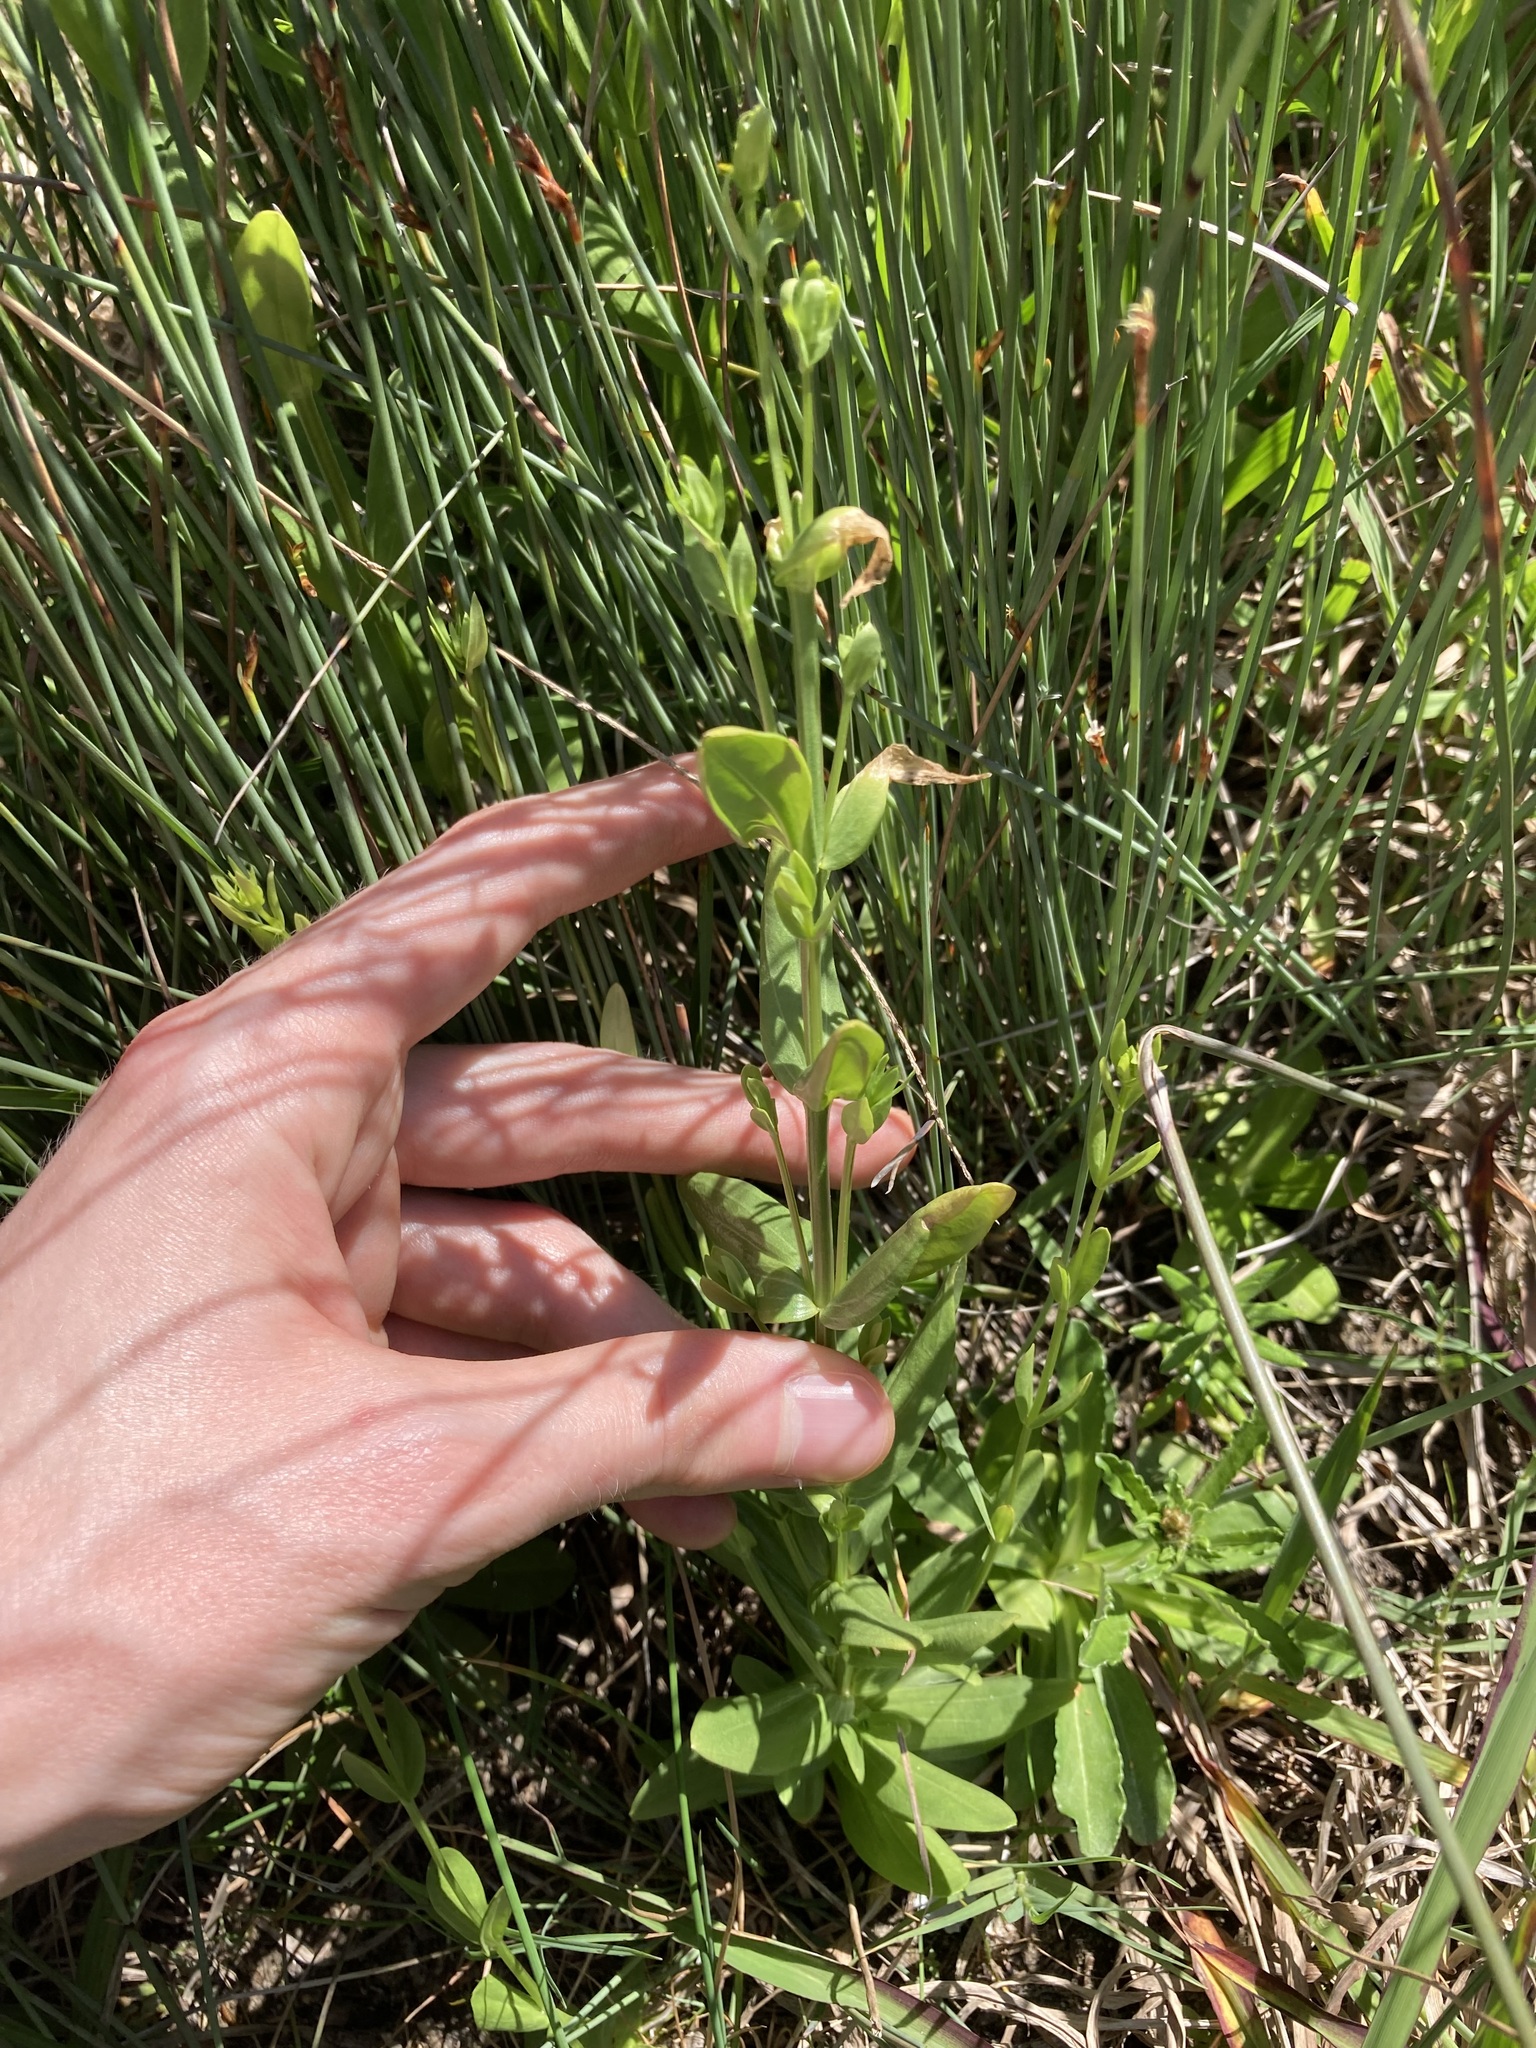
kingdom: Plantae
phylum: Tracheophyta
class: Magnoliopsida
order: Gentianales
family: Gentianaceae
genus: Centaurium
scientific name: Centaurium erythraea
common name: Common centaury
